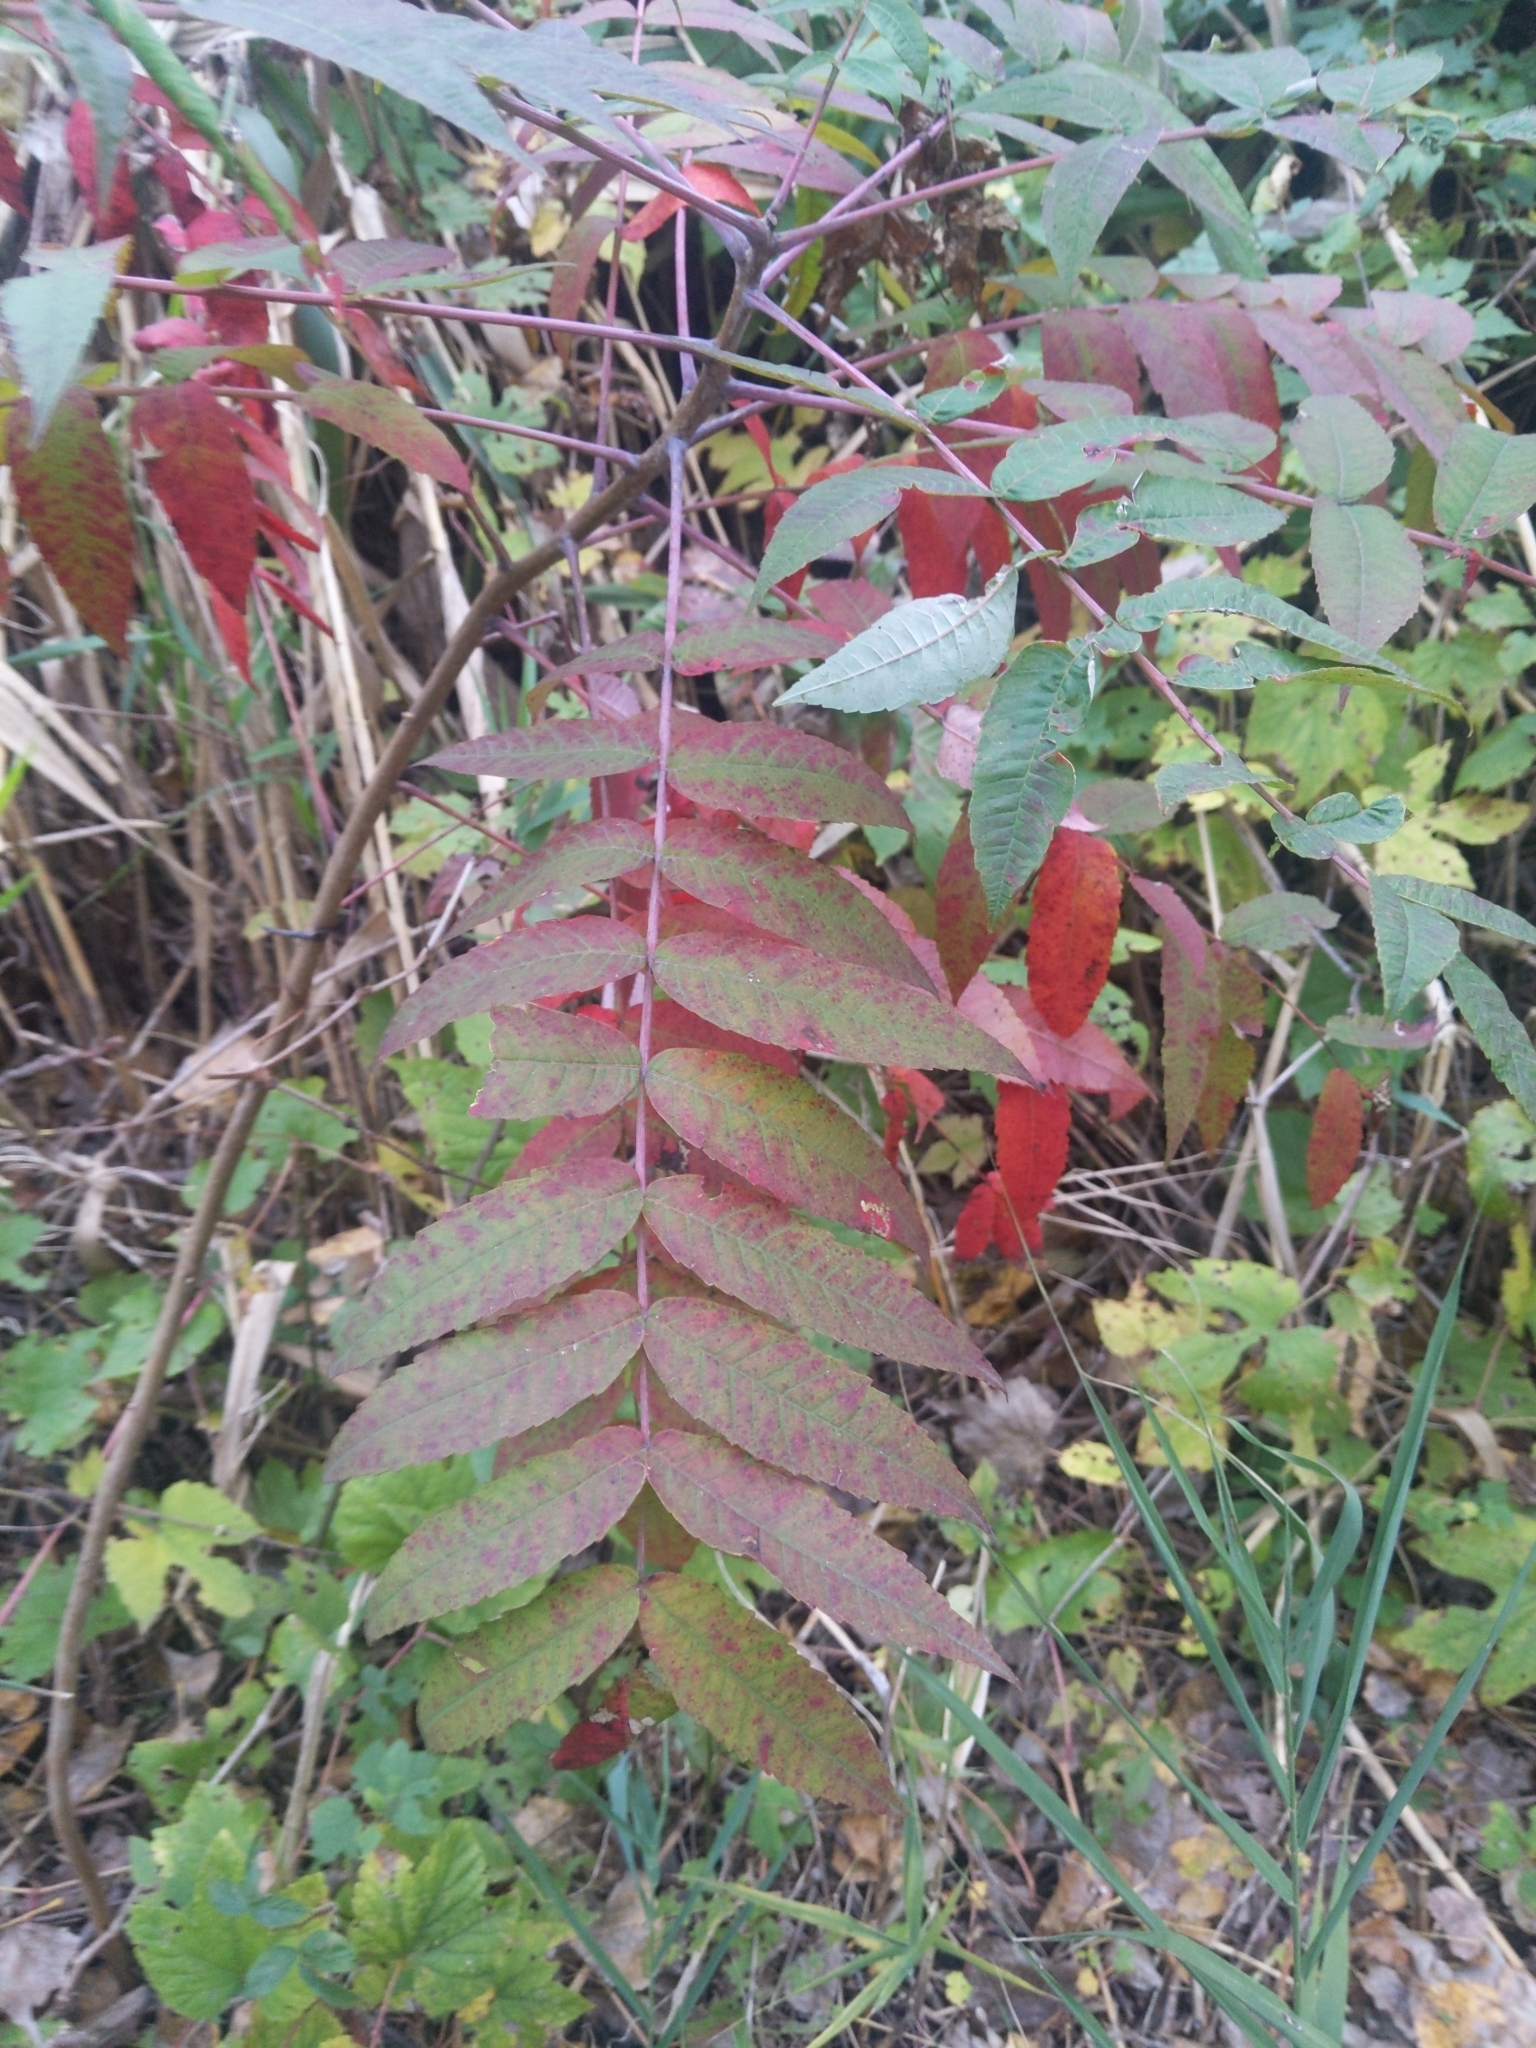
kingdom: Plantae
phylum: Tracheophyta
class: Magnoliopsida
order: Sapindales
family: Anacardiaceae
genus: Rhus
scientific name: Rhus glabra
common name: Scarlet sumac
